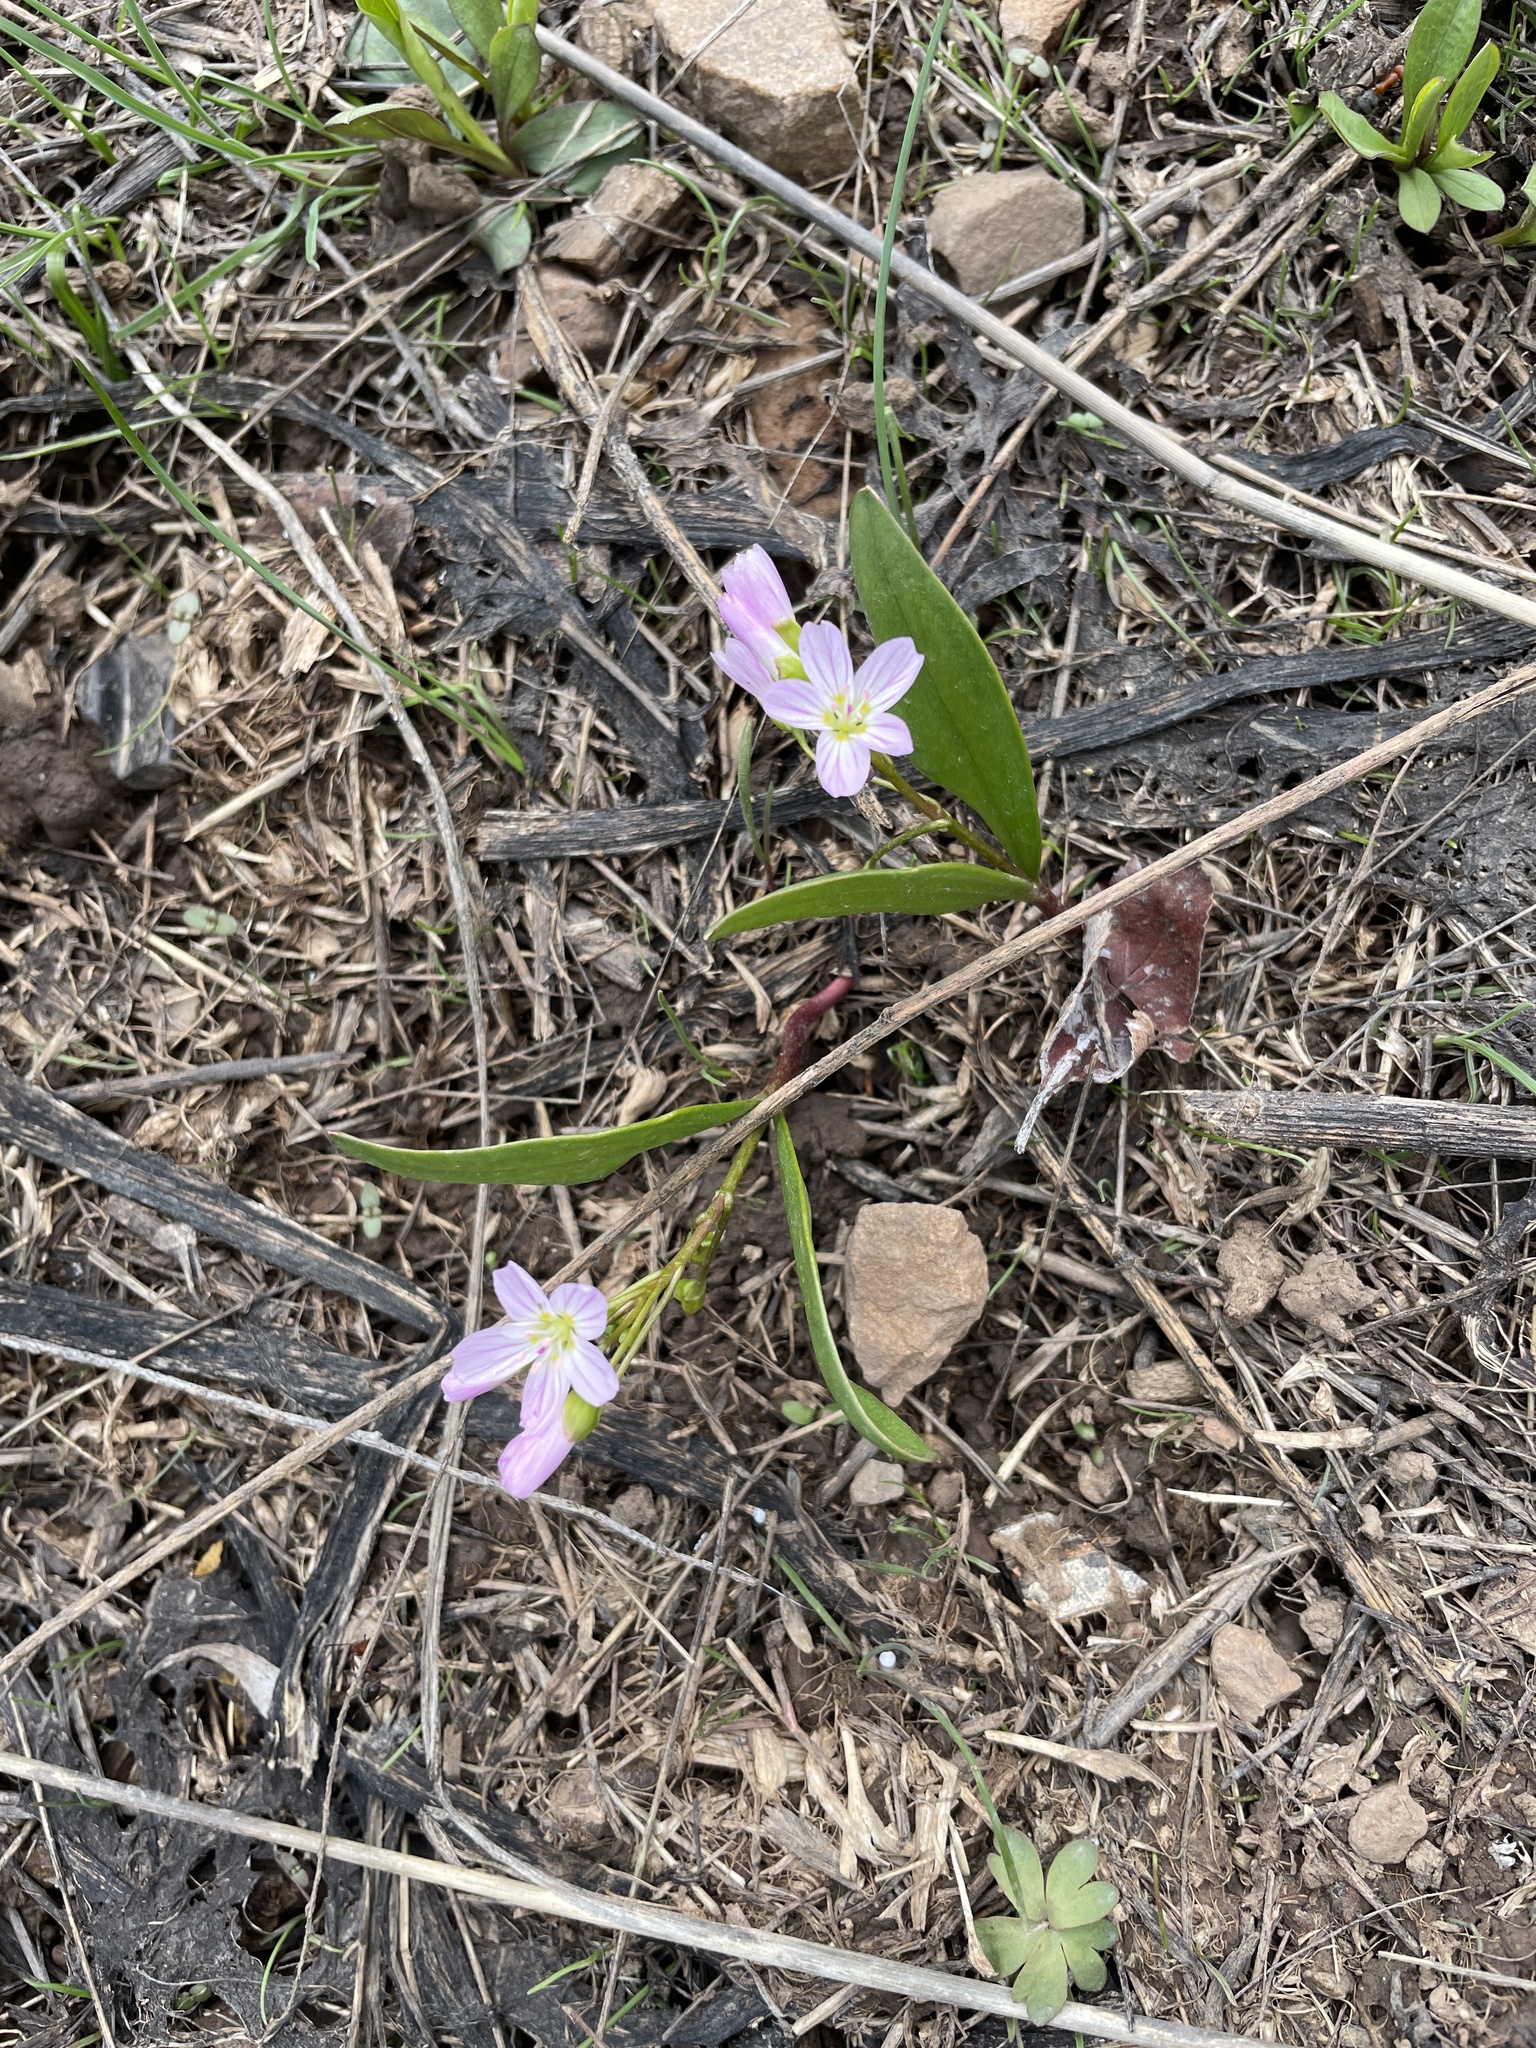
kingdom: Plantae
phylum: Tracheophyta
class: Magnoliopsida
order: Caryophyllales
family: Montiaceae
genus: Claytonia
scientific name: Claytonia lanceolata
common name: Western spring-beauty
